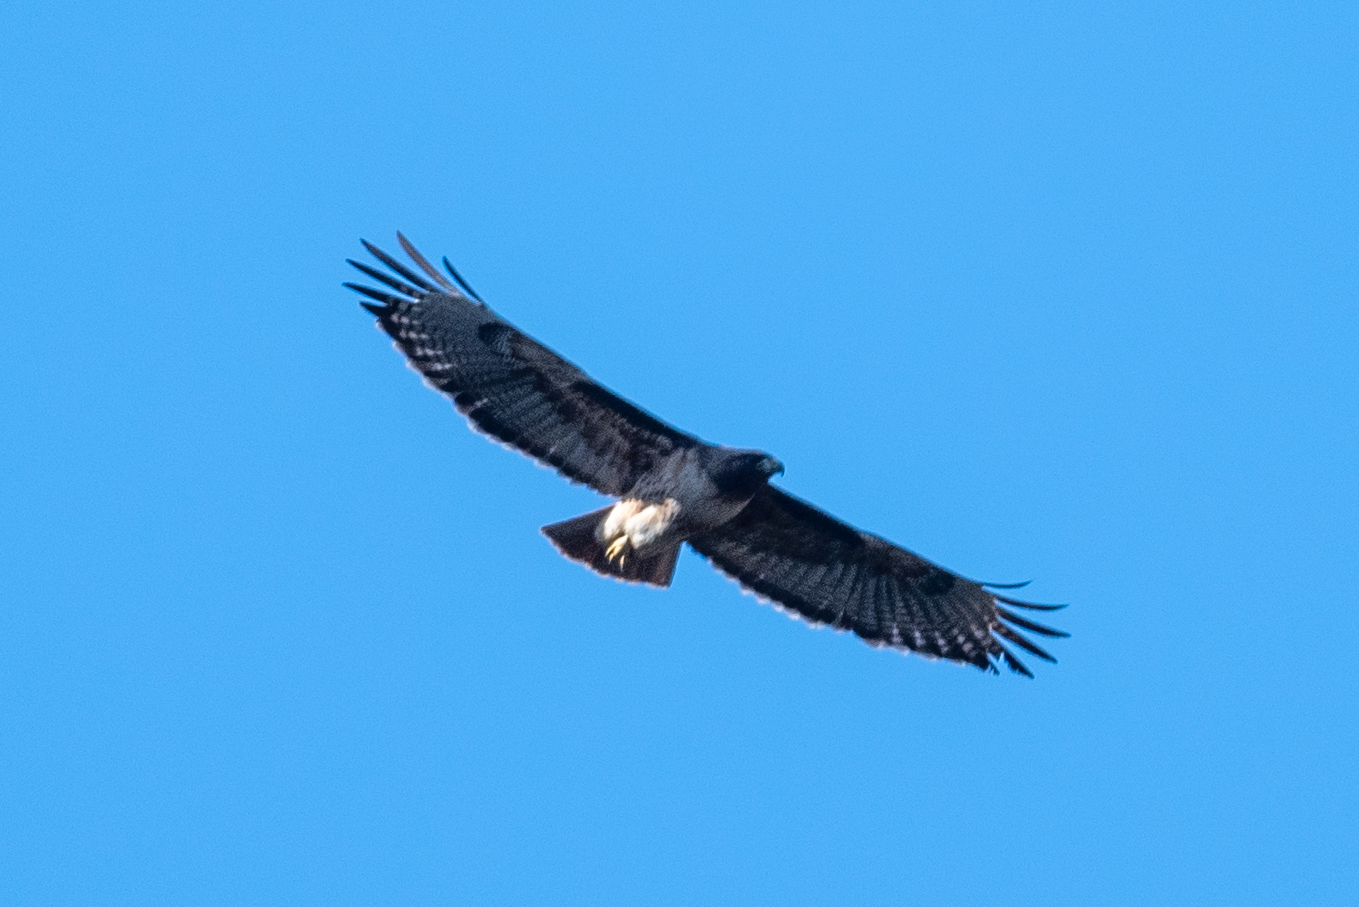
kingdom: Animalia
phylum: Chordata
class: Aves
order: Accipitriformes
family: Accipitridae
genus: Buteo
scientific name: Buteo jamaicensis
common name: Red-tailed hawk
